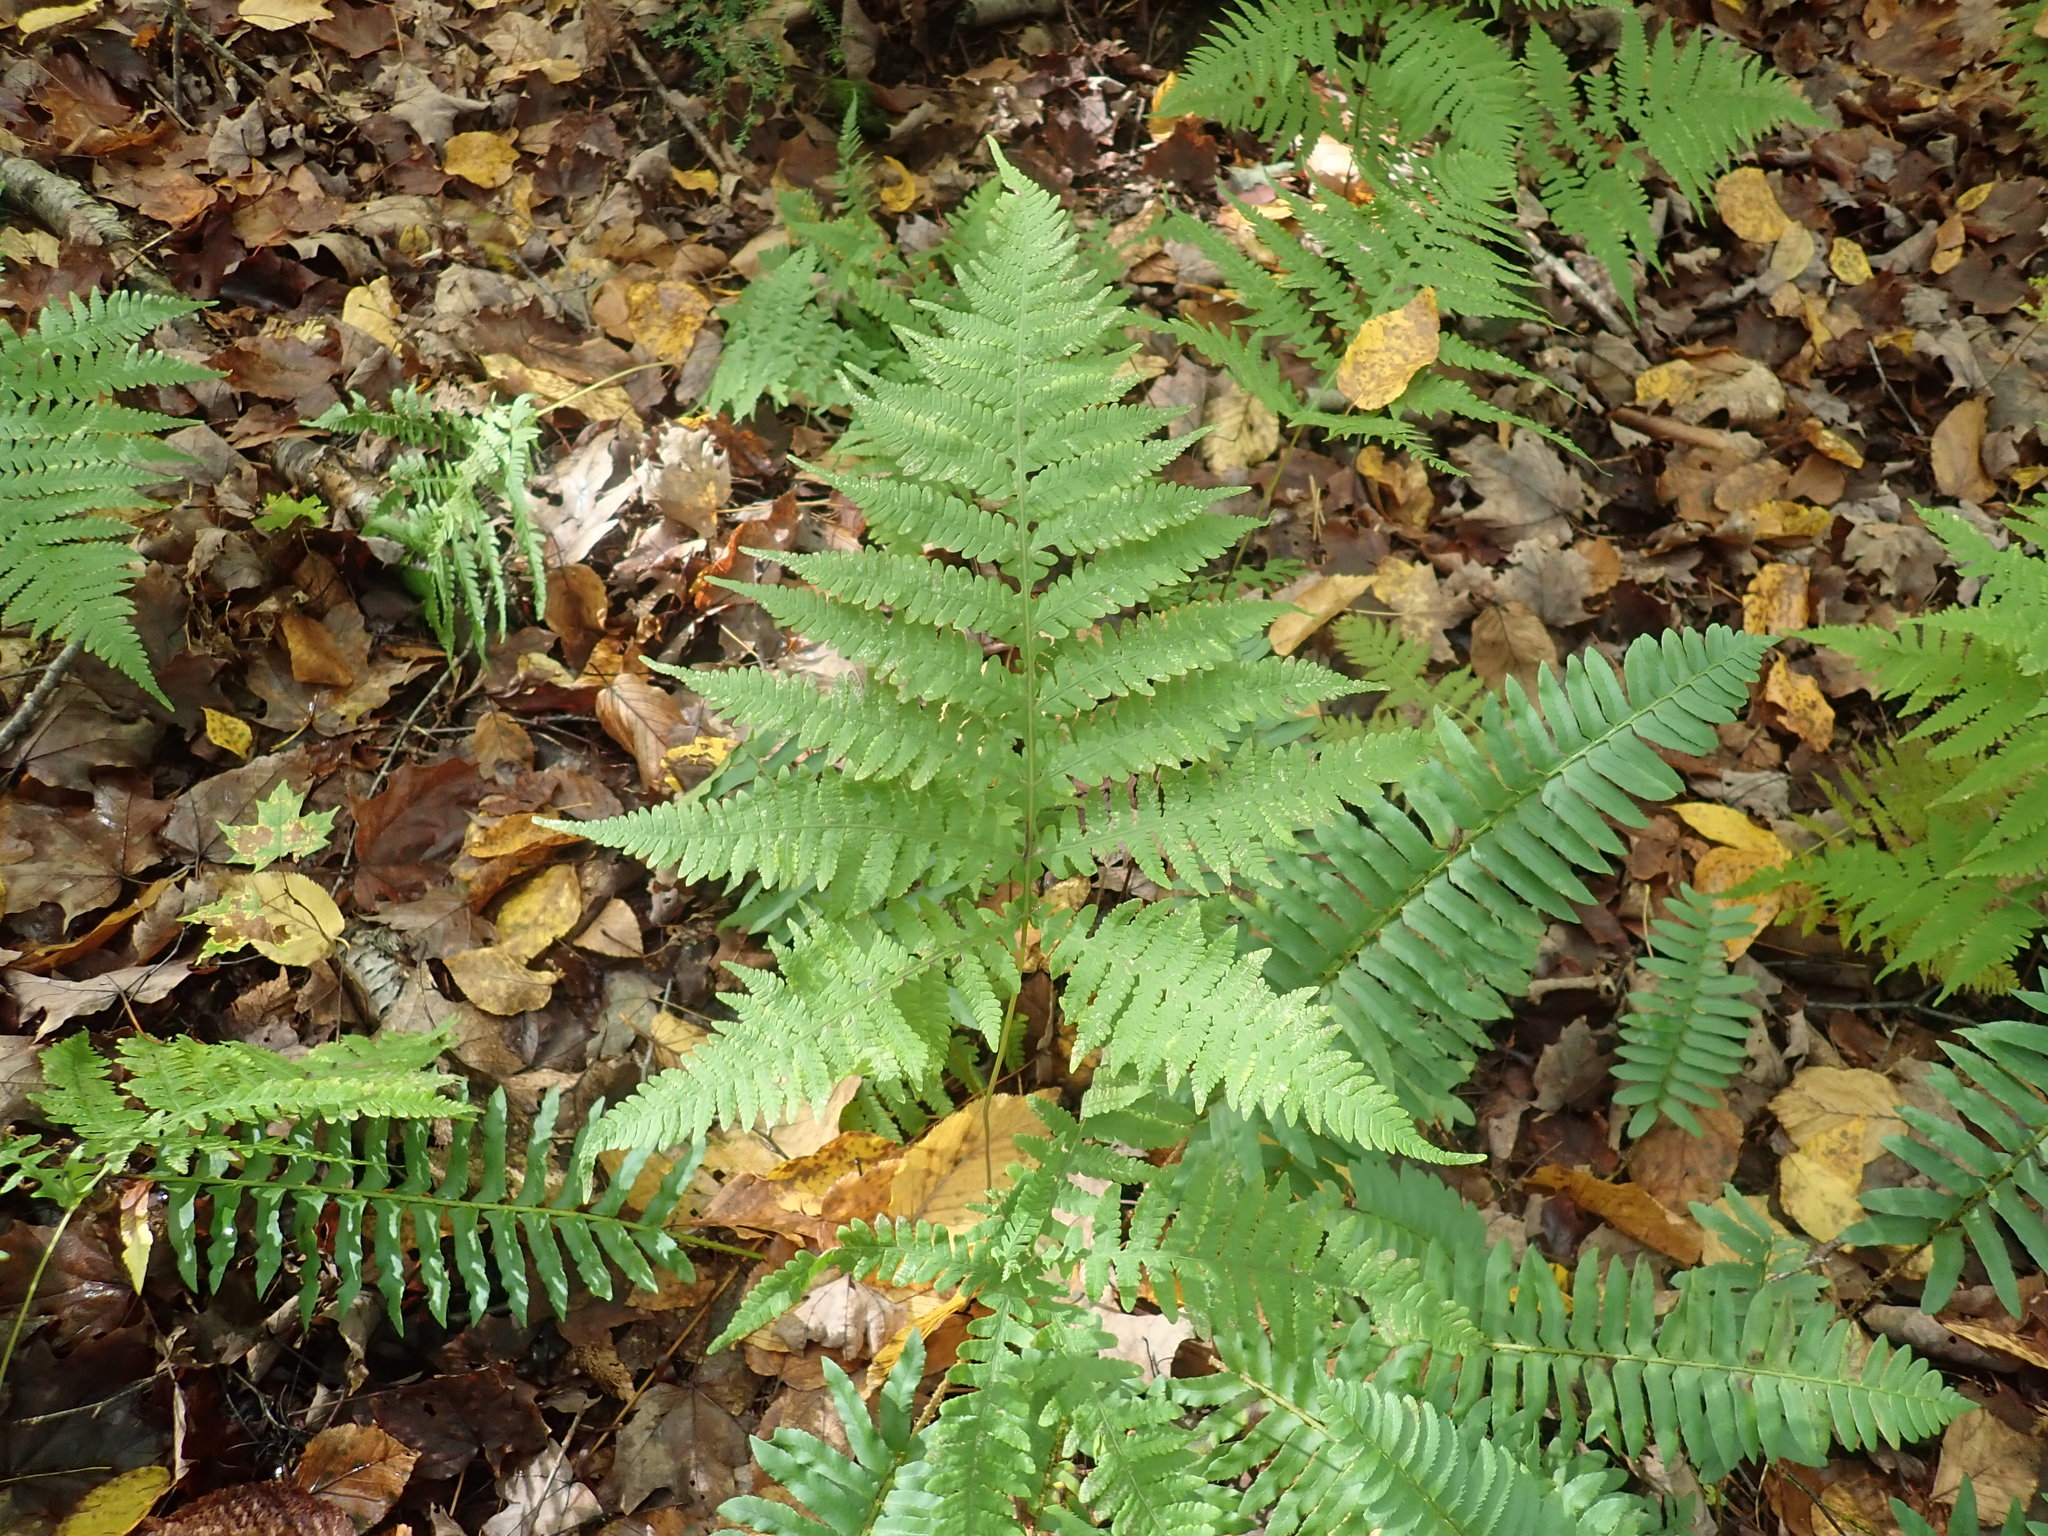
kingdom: Plantae
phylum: Tracheophyta
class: Polypodiopsida
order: Polypodiales
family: Thelypteridaceae
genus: Phegopteris
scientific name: Phegopteris hexagonoptera
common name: Broad beech fern
